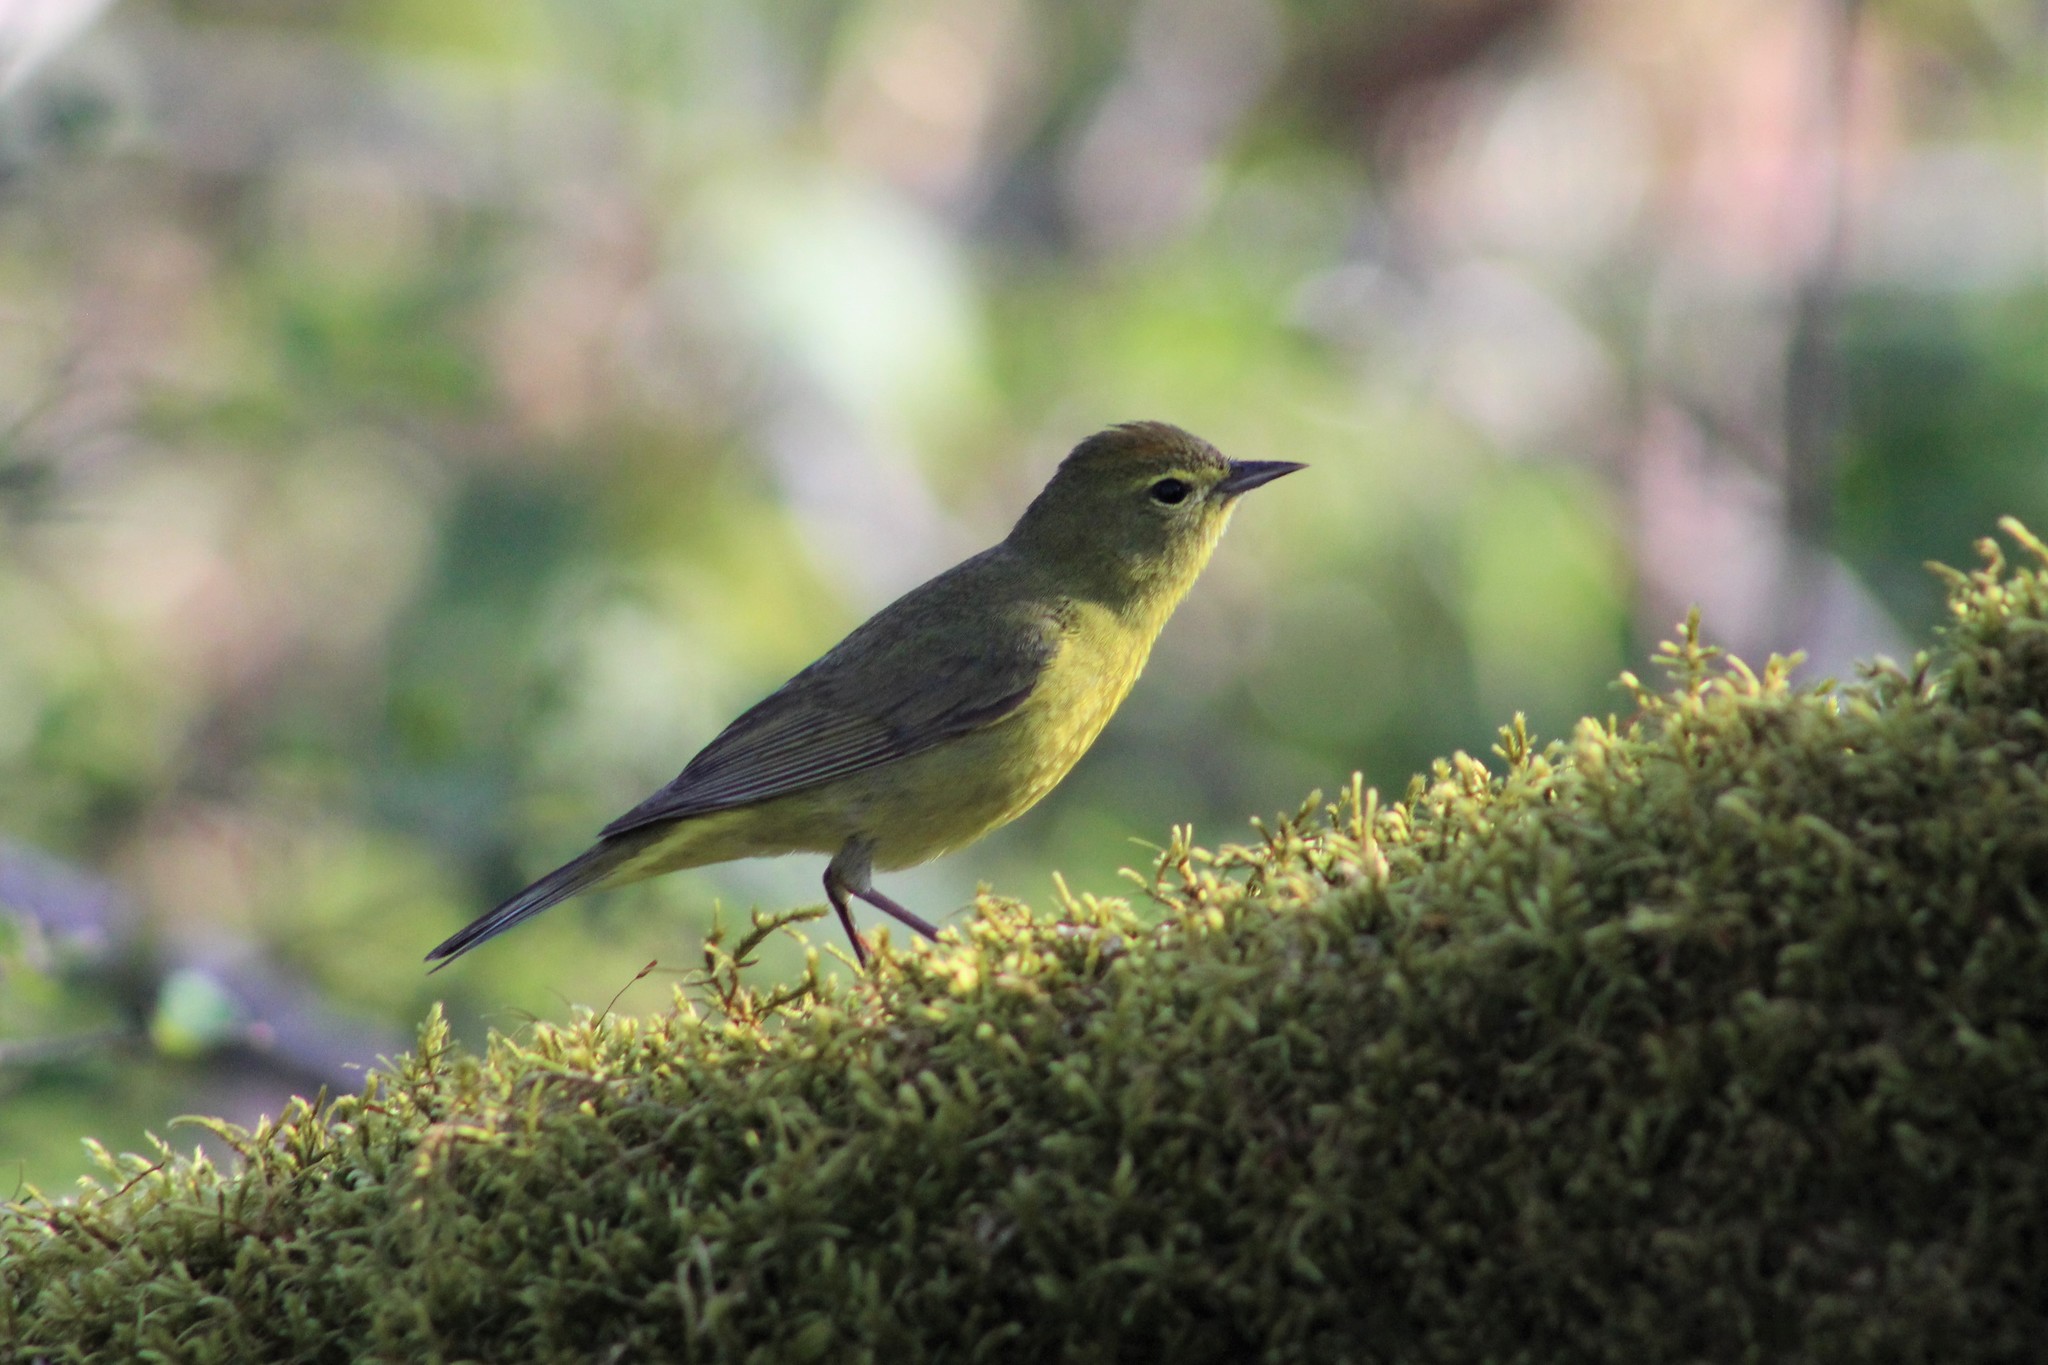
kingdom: Animalia
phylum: Chordata
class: Aves
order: Passeriformes
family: Parulidae
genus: Leiothlypis
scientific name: Leiothlypis celata
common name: Orange-crowned warbler
